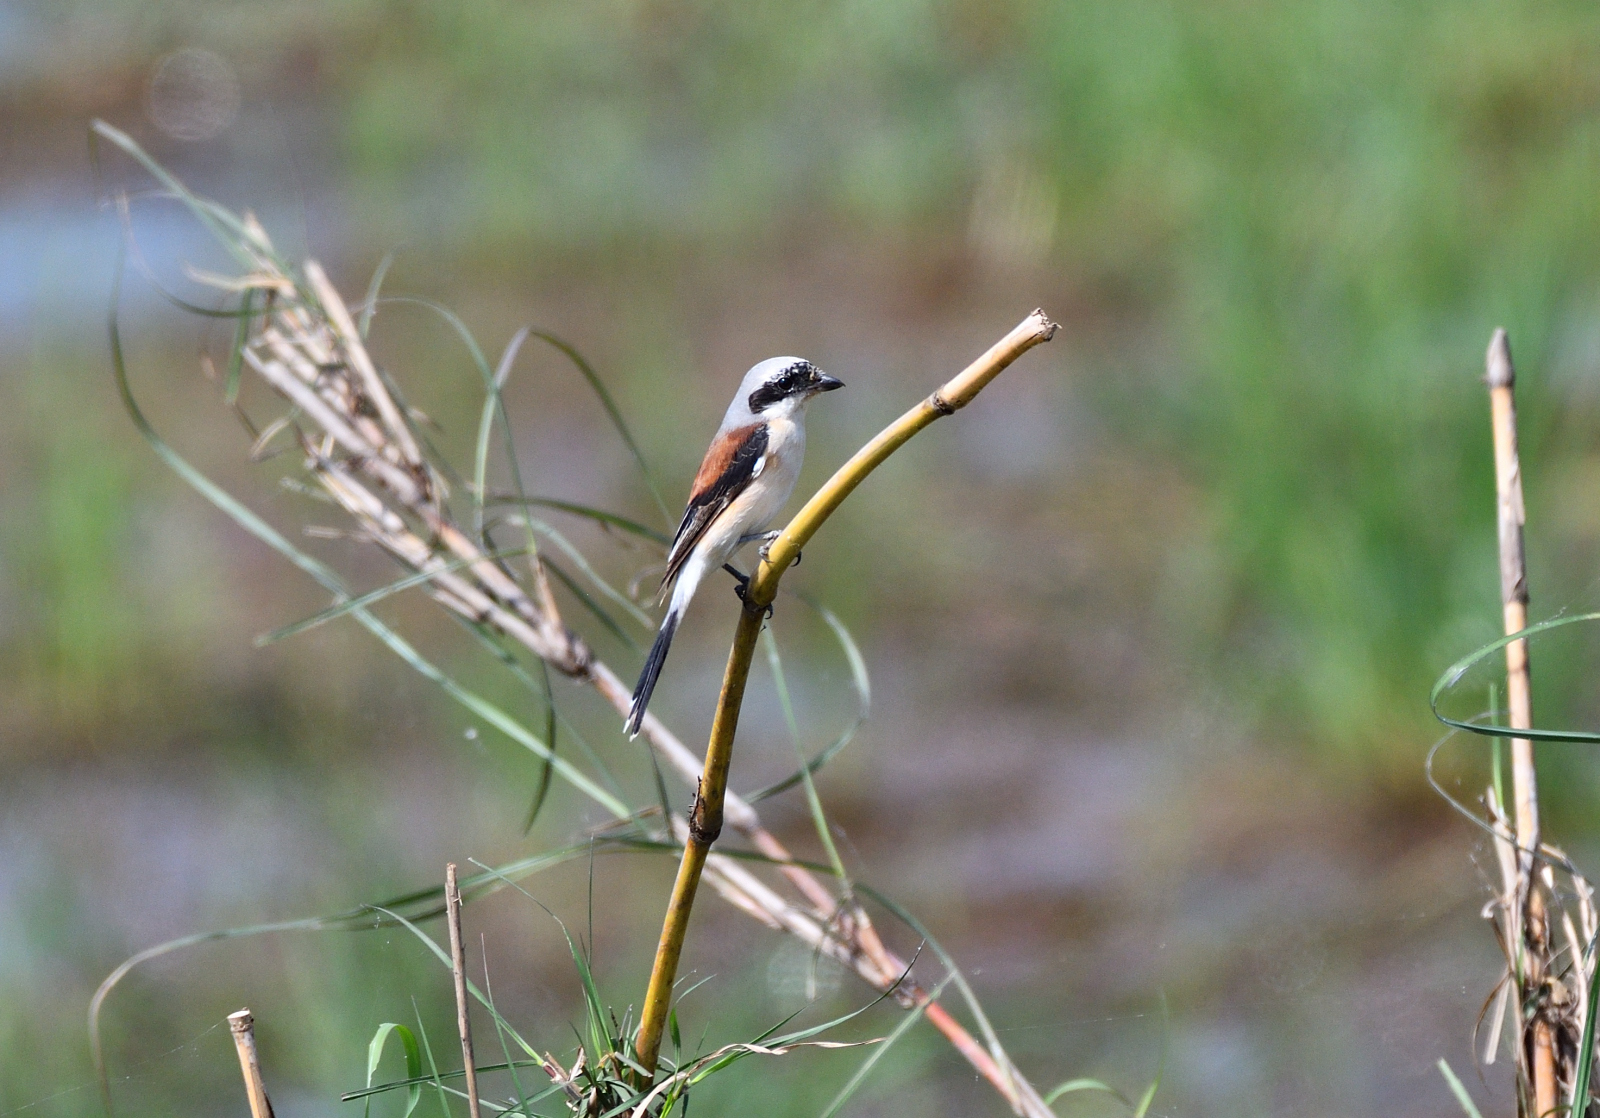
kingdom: Animalia
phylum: Chordata
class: Aves
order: Passeriformes
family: Laniidae
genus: Lanius
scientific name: Lanius vittatus
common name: Bay-backed shrike
